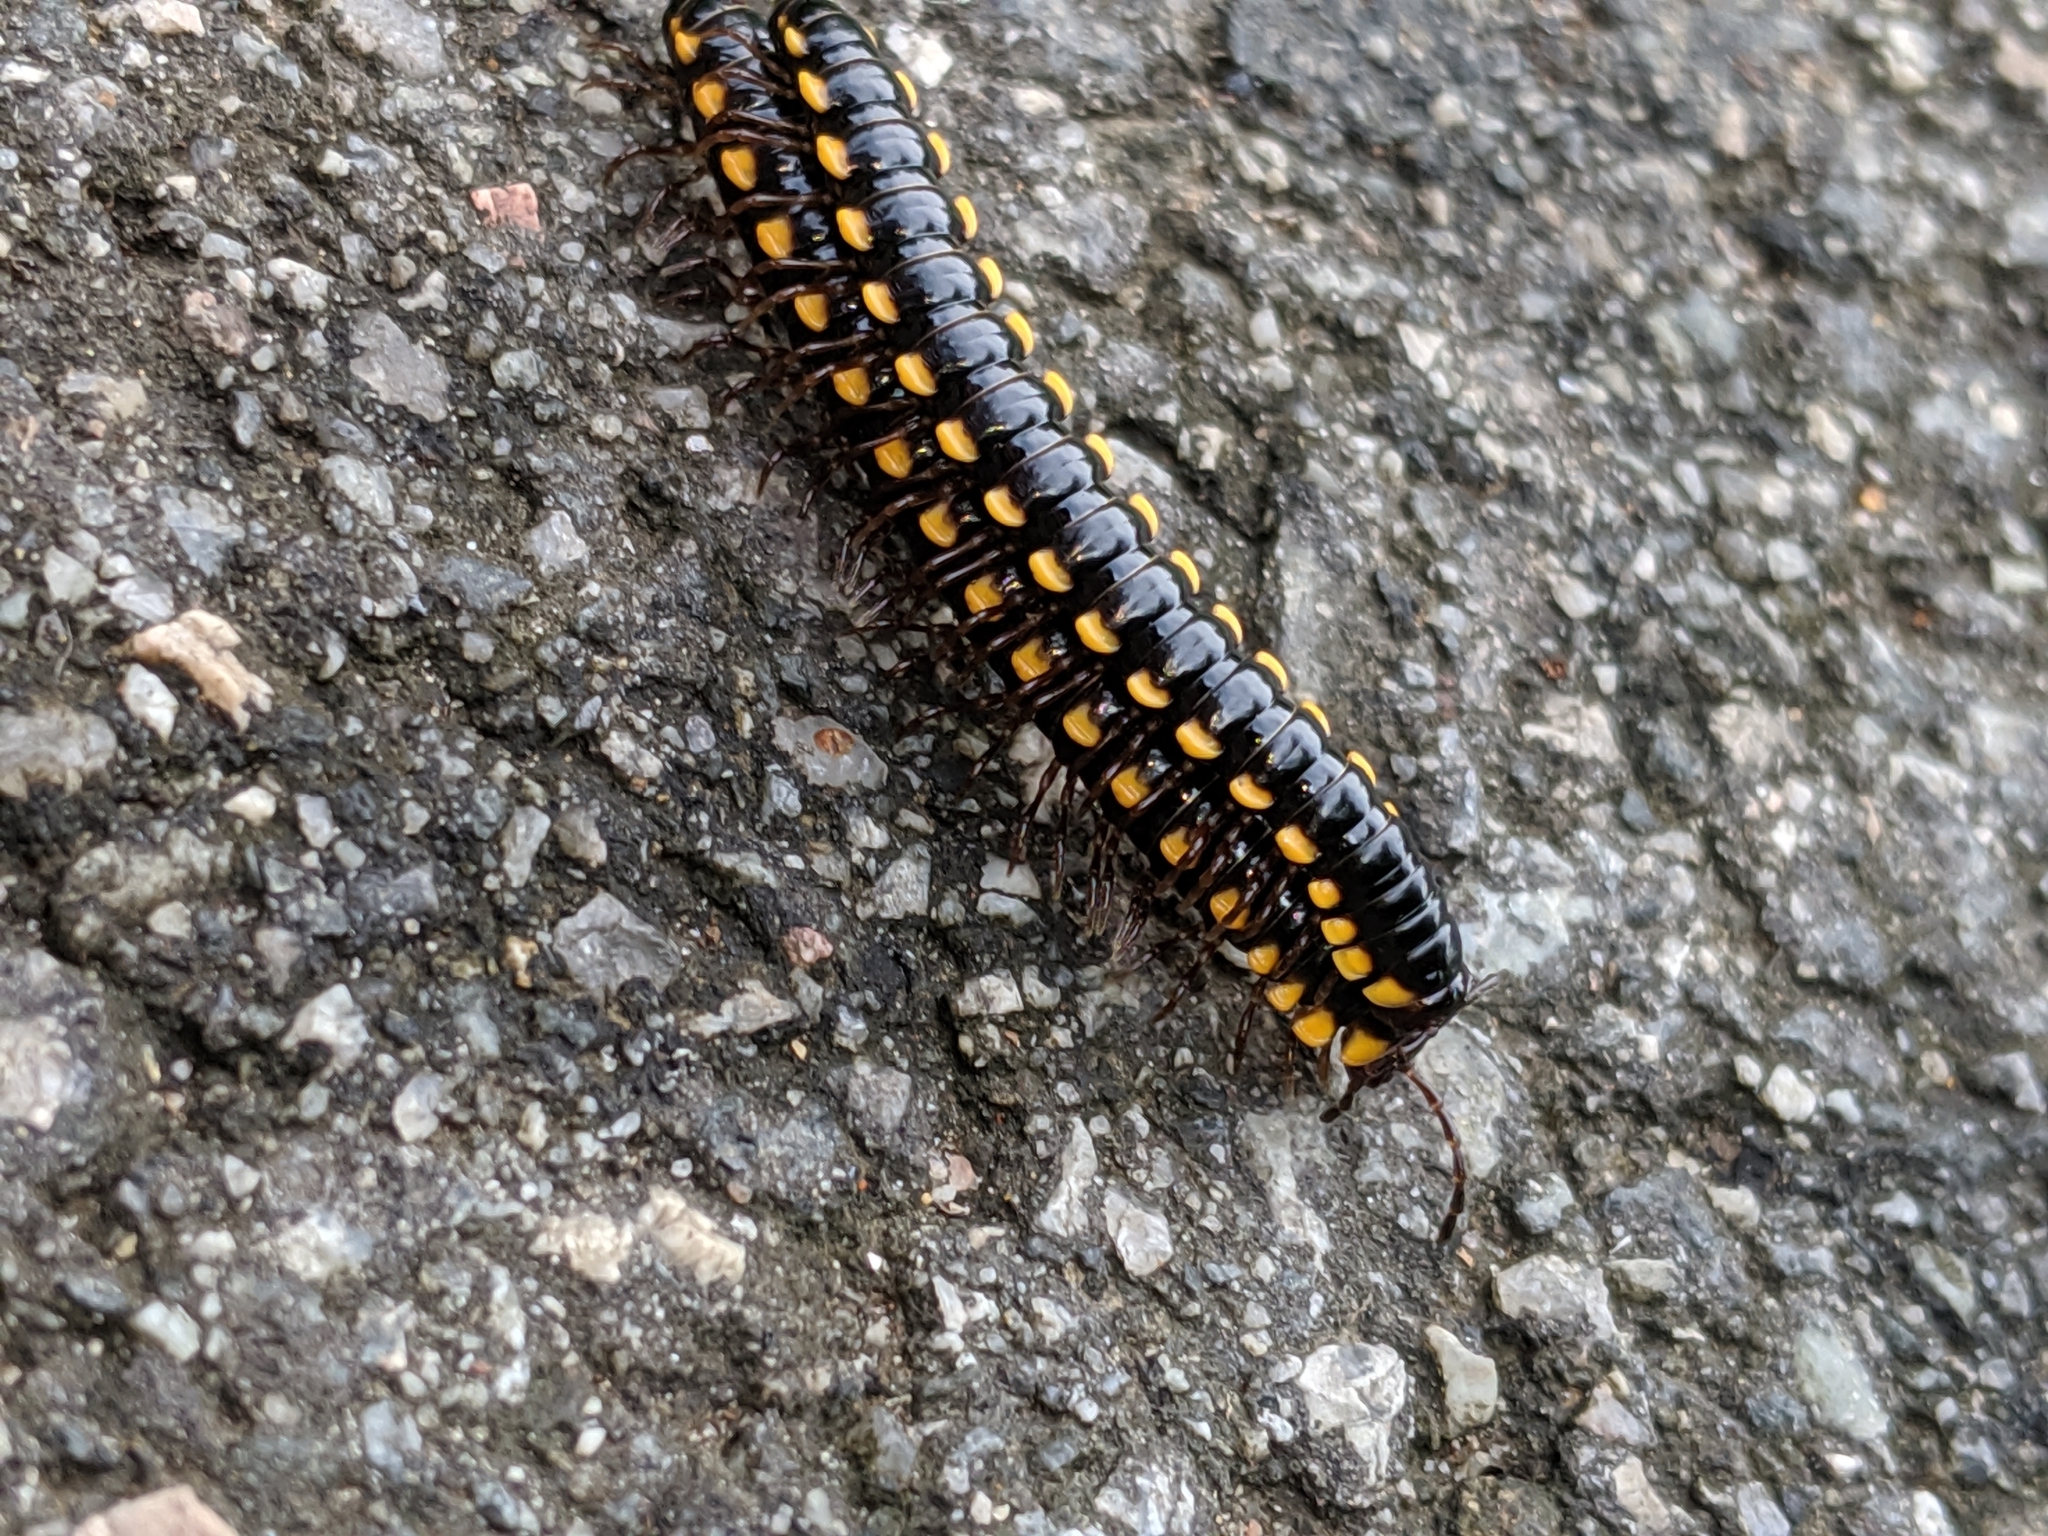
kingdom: Animalia
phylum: Arthropoda
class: Diplopoda
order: Polydesmida
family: Paradoxosomatidae
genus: Anoplodesmus
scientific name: Anoplodesmus saussurii
